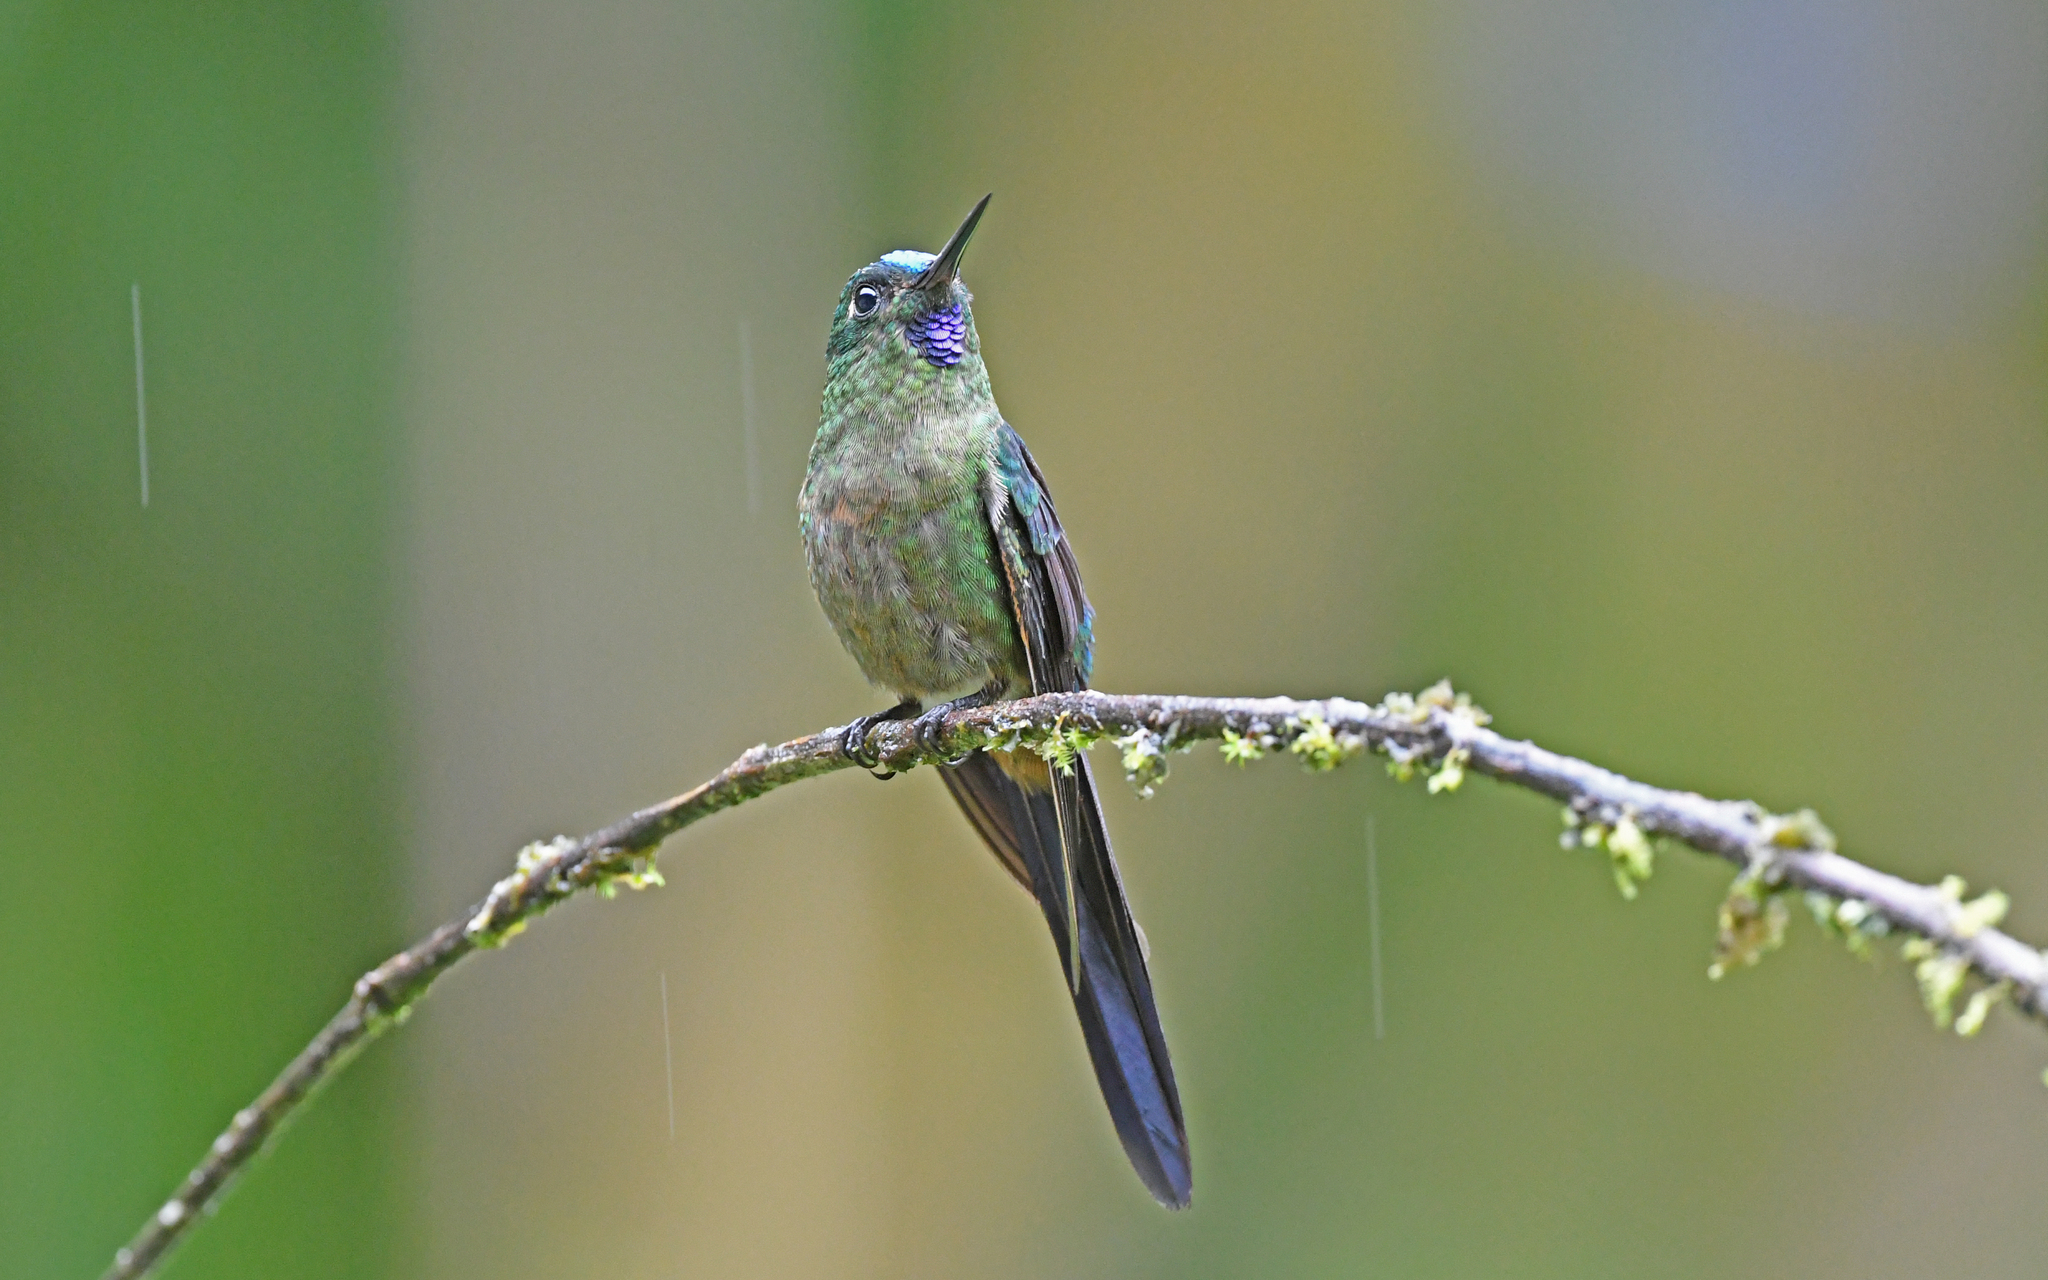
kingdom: Animalia
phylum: Chordata
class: Aves
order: Apodiformes
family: Trochilidae
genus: Aglaiocercus
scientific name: Aglaiocercus coelestis
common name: Violet-tailed sylph
